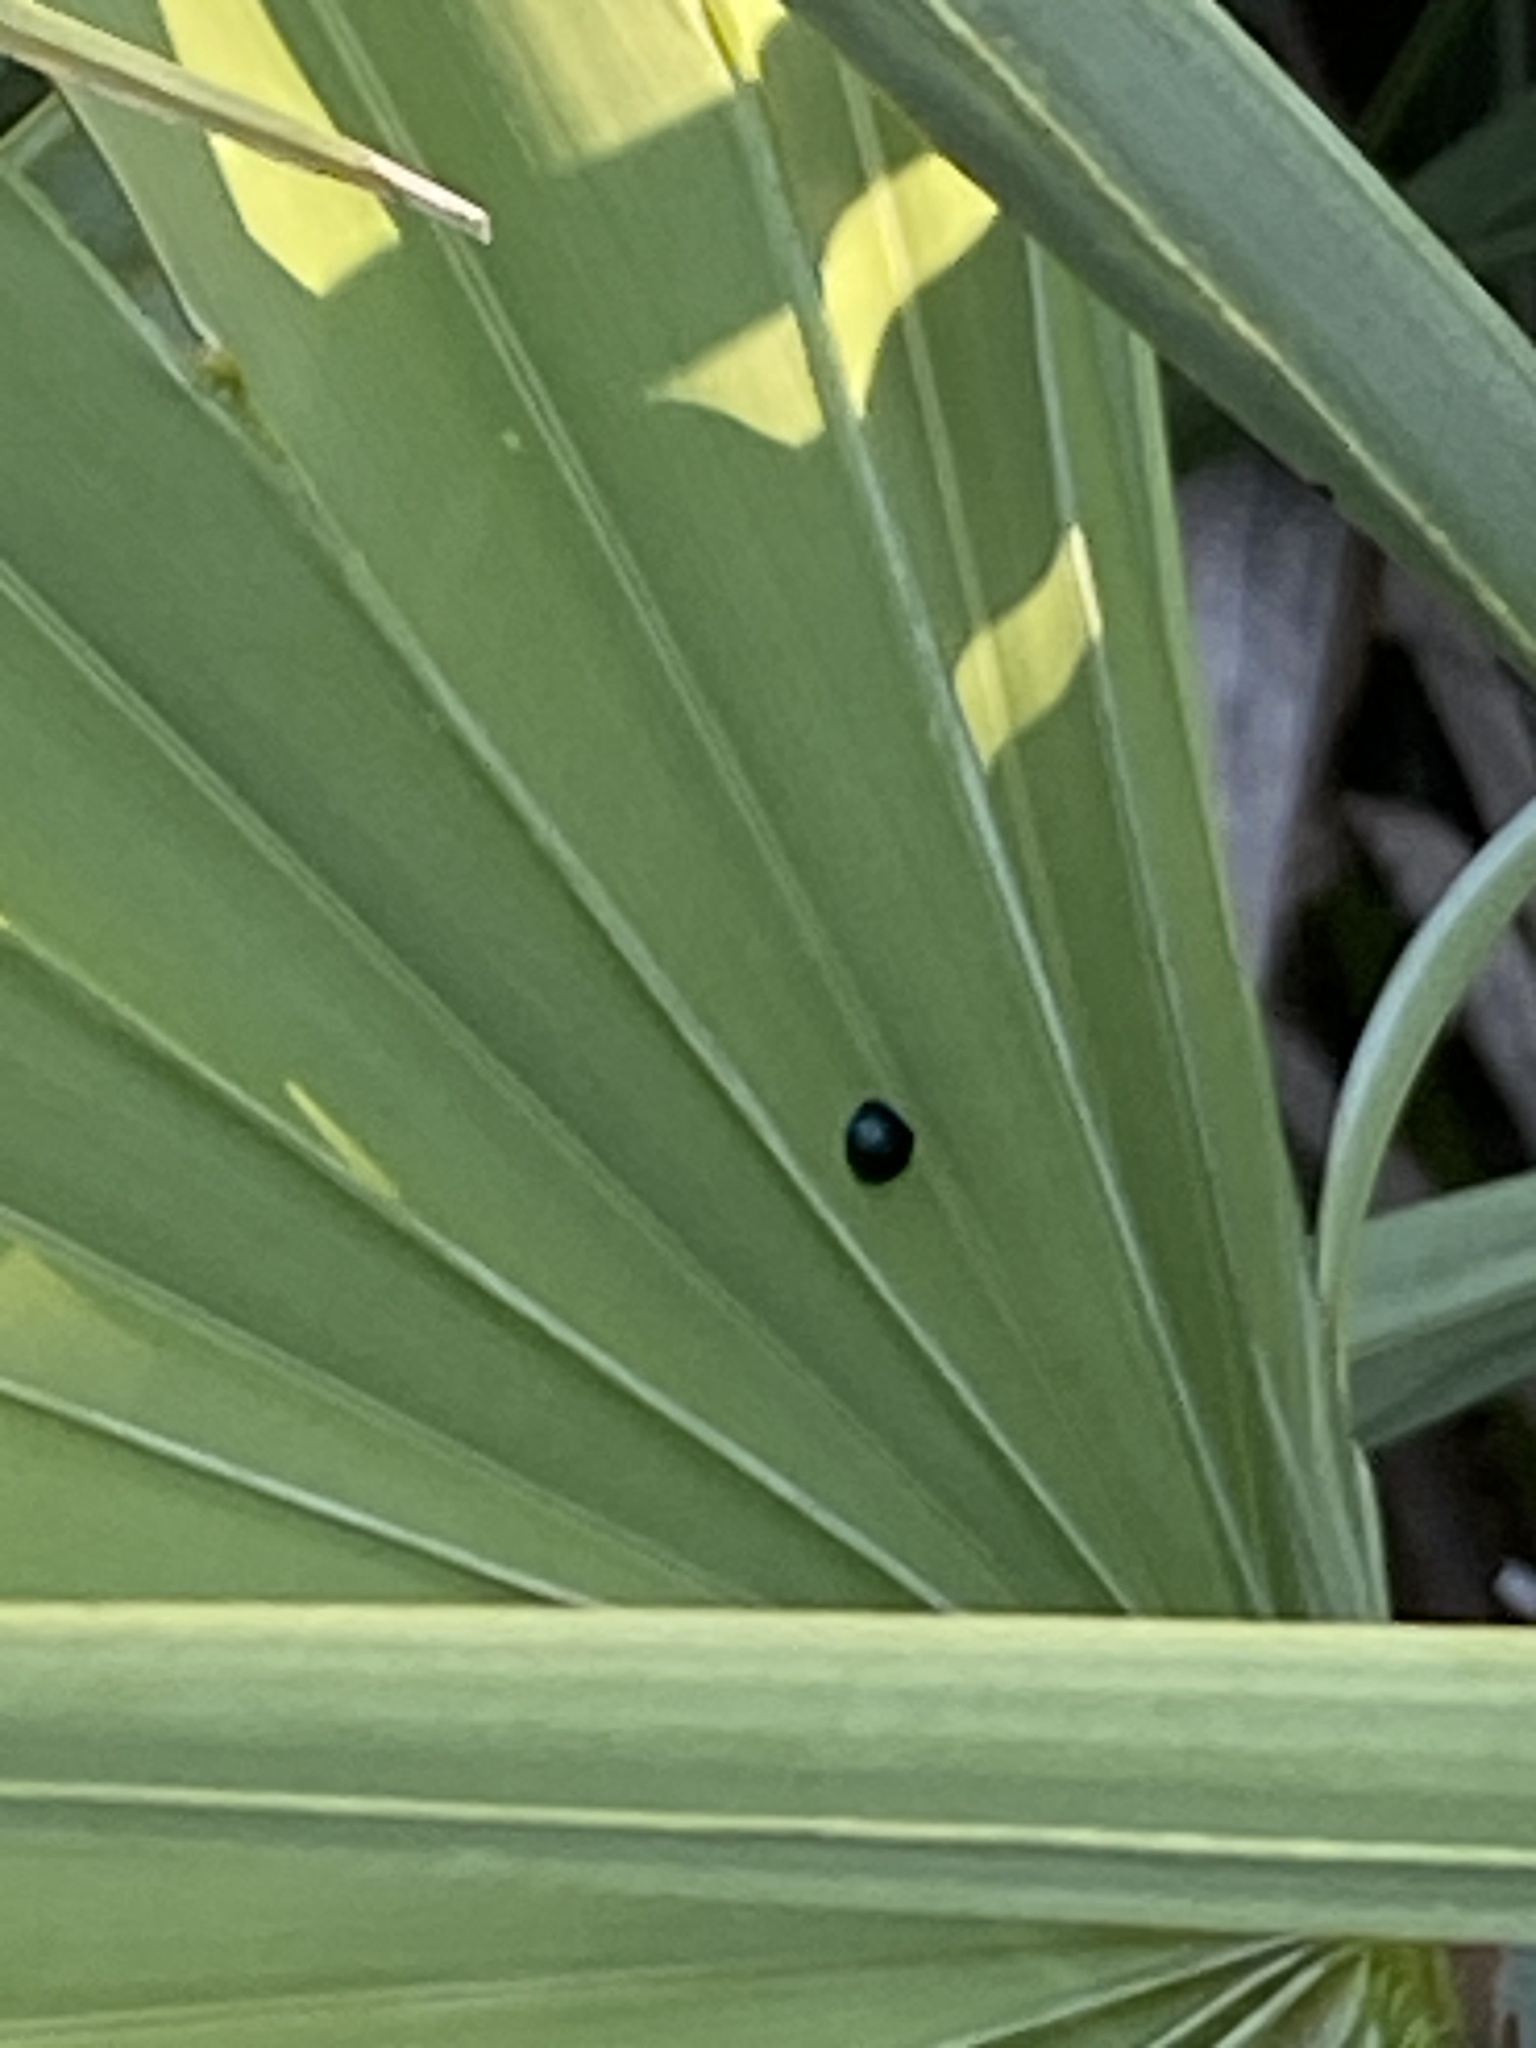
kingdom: Animalia
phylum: Arthropoda
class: Insecta
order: Coleoptera
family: Chrysomelidae
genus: Hemisphaerota
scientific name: Hemisphaerota cyanea
